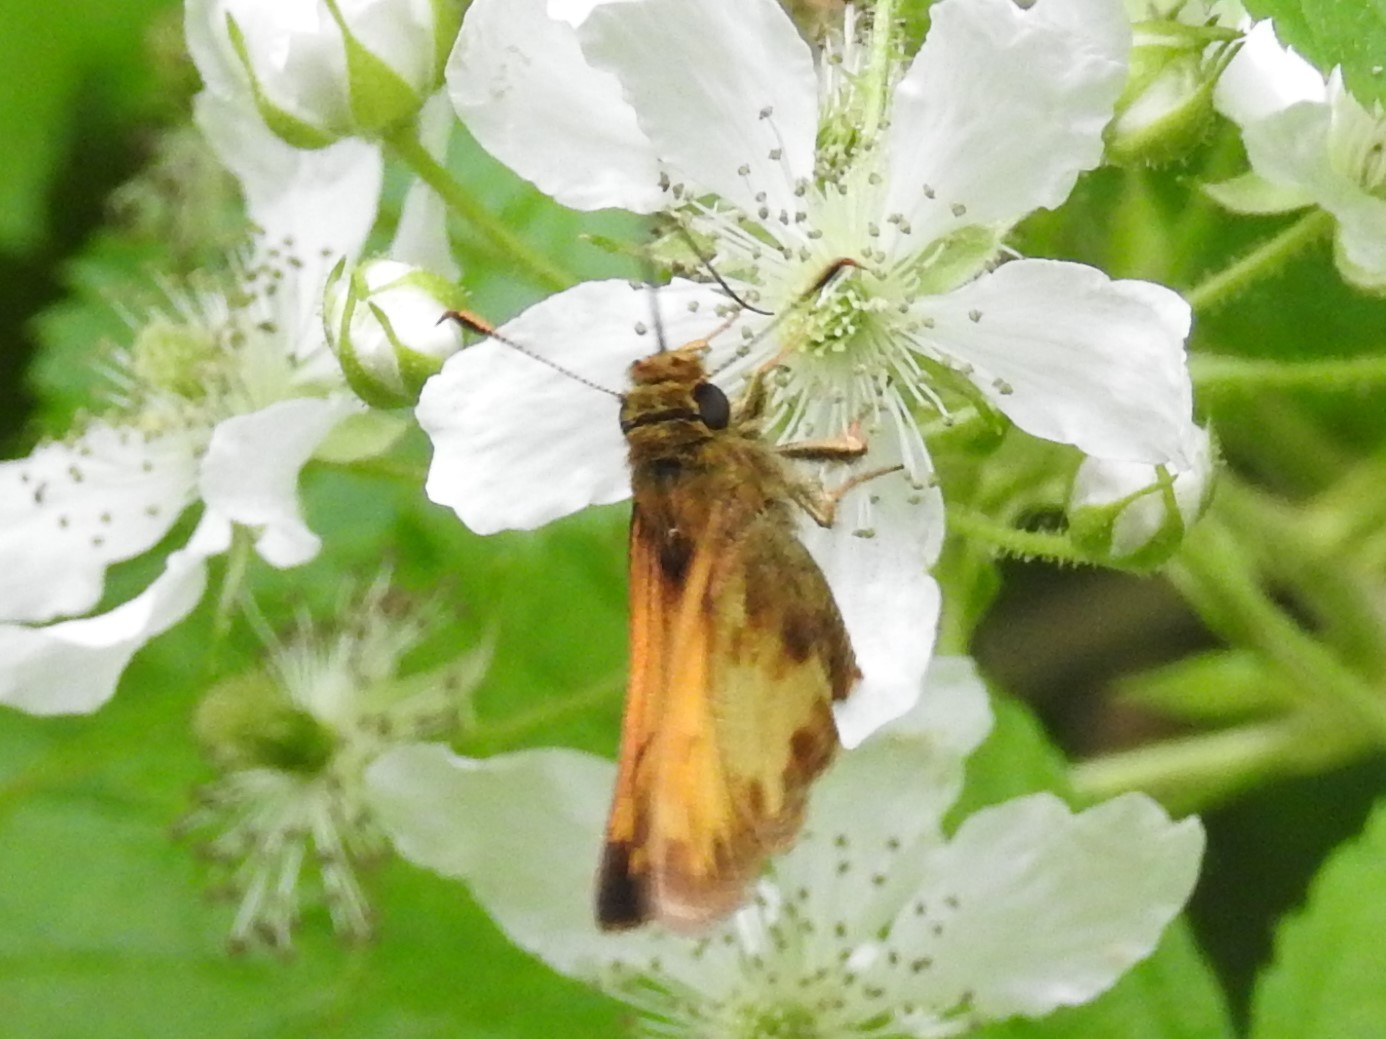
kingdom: Animalia
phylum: Arthropoda
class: Insecta
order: Lepidoptera
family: Hesperiidae
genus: Lon
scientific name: Lon zabulon
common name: Zabulon skipper
